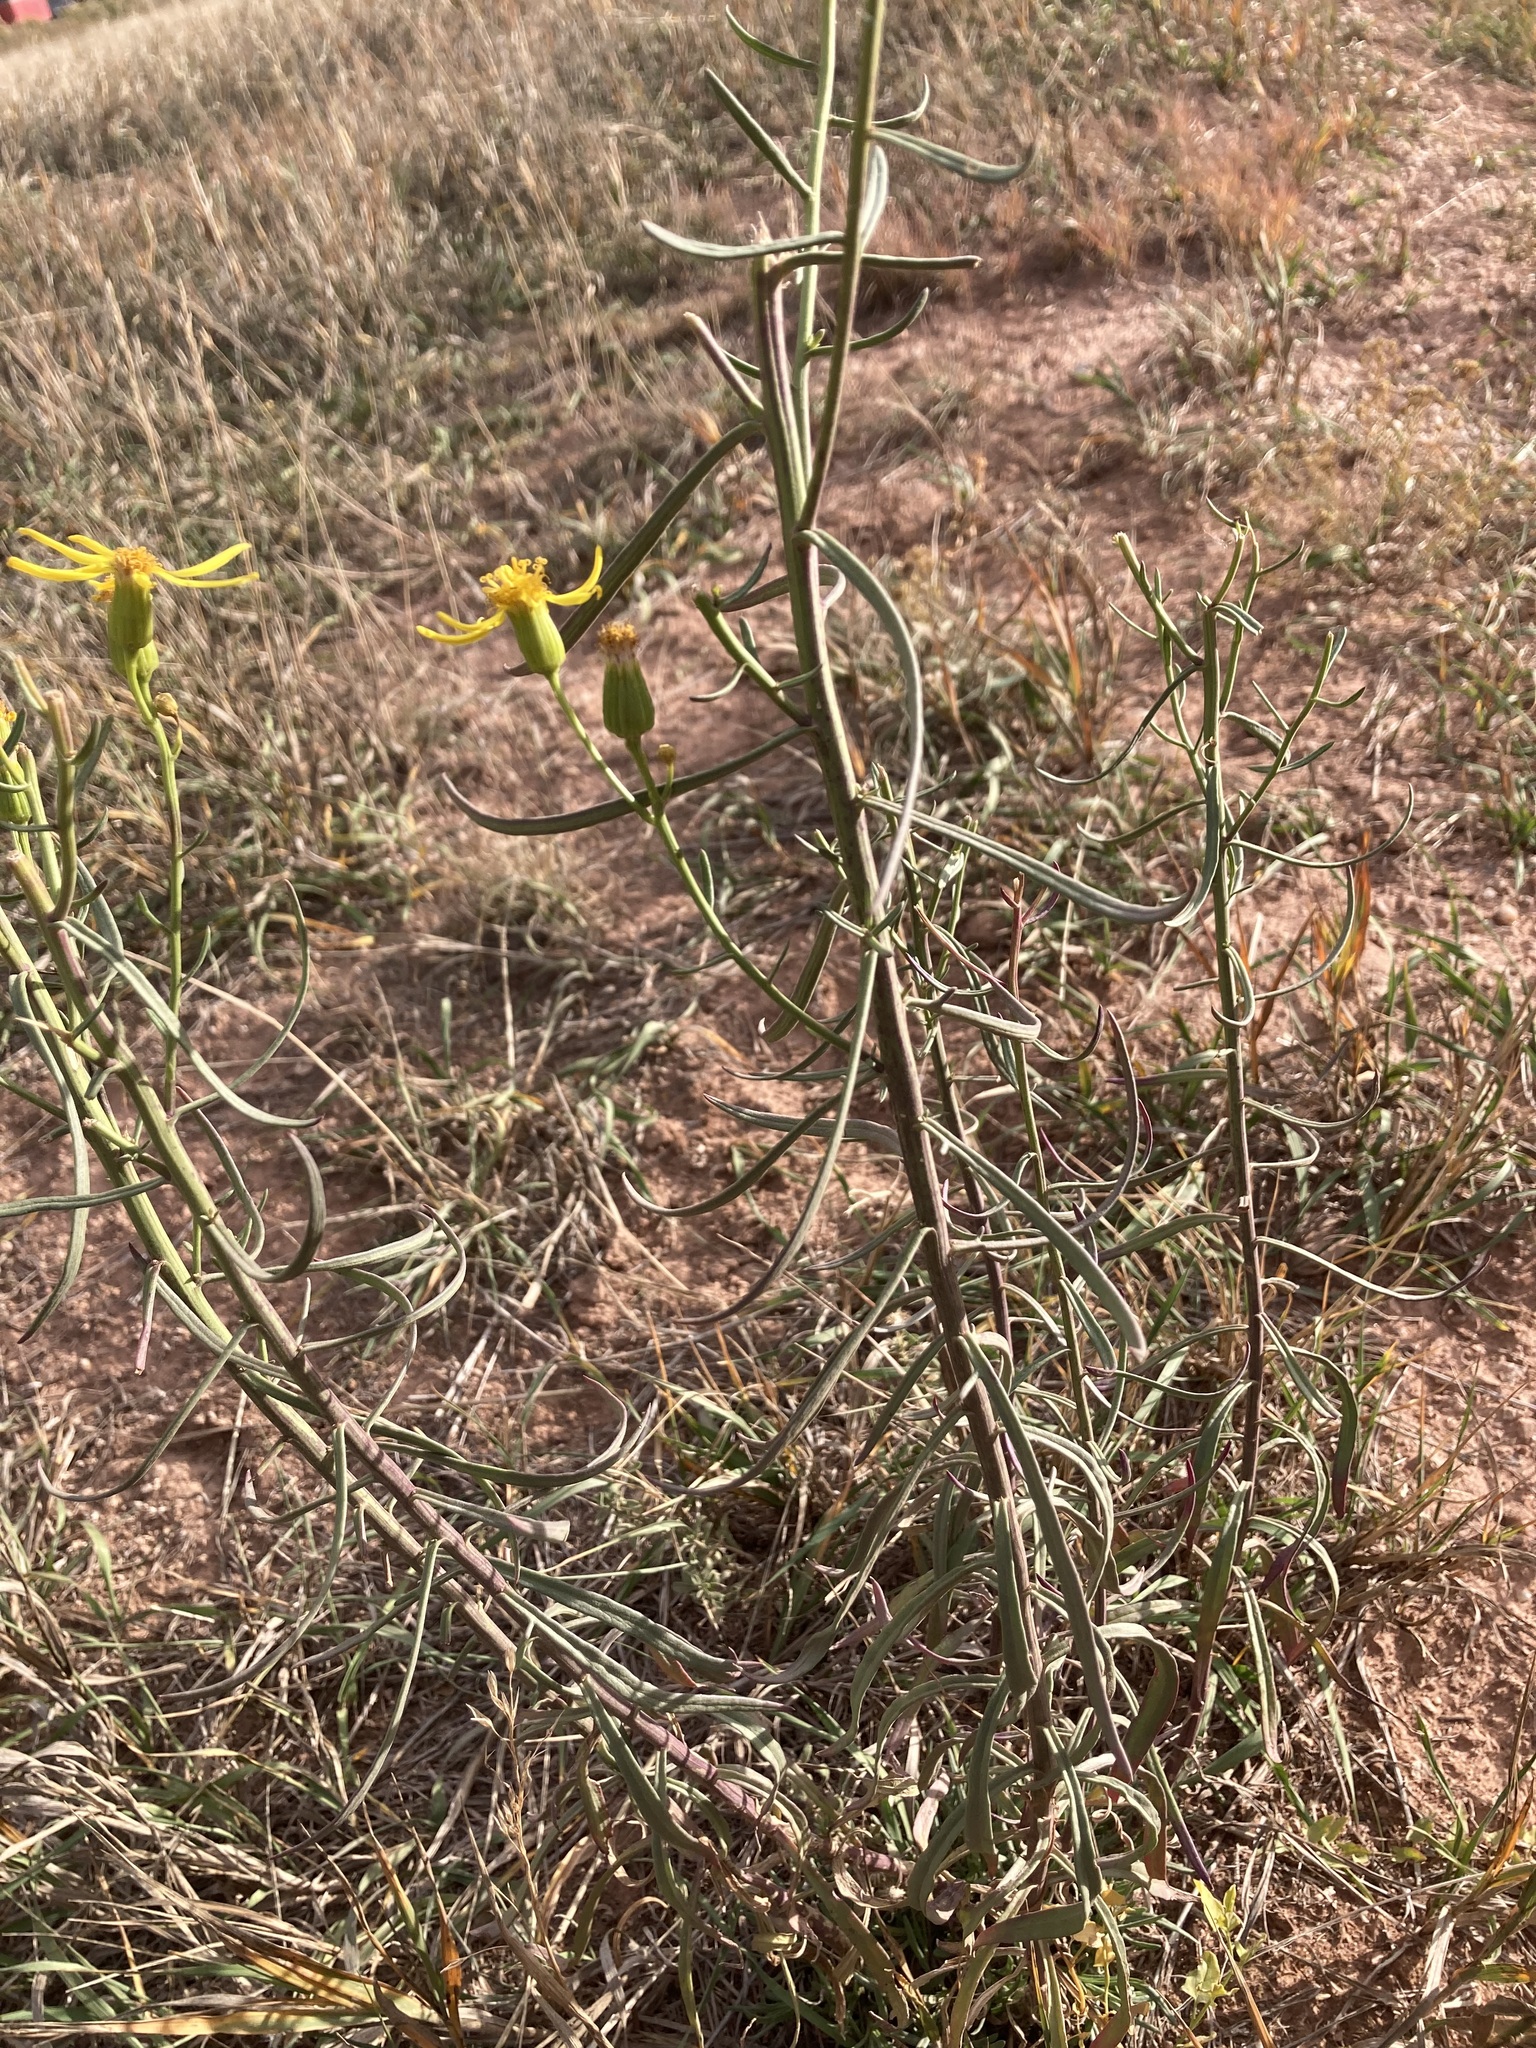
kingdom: Plantae
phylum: Tracheophyta
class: Magnoliopsida
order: Asterales
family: Asteraceae
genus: Senecio
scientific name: Senecio spartioides
